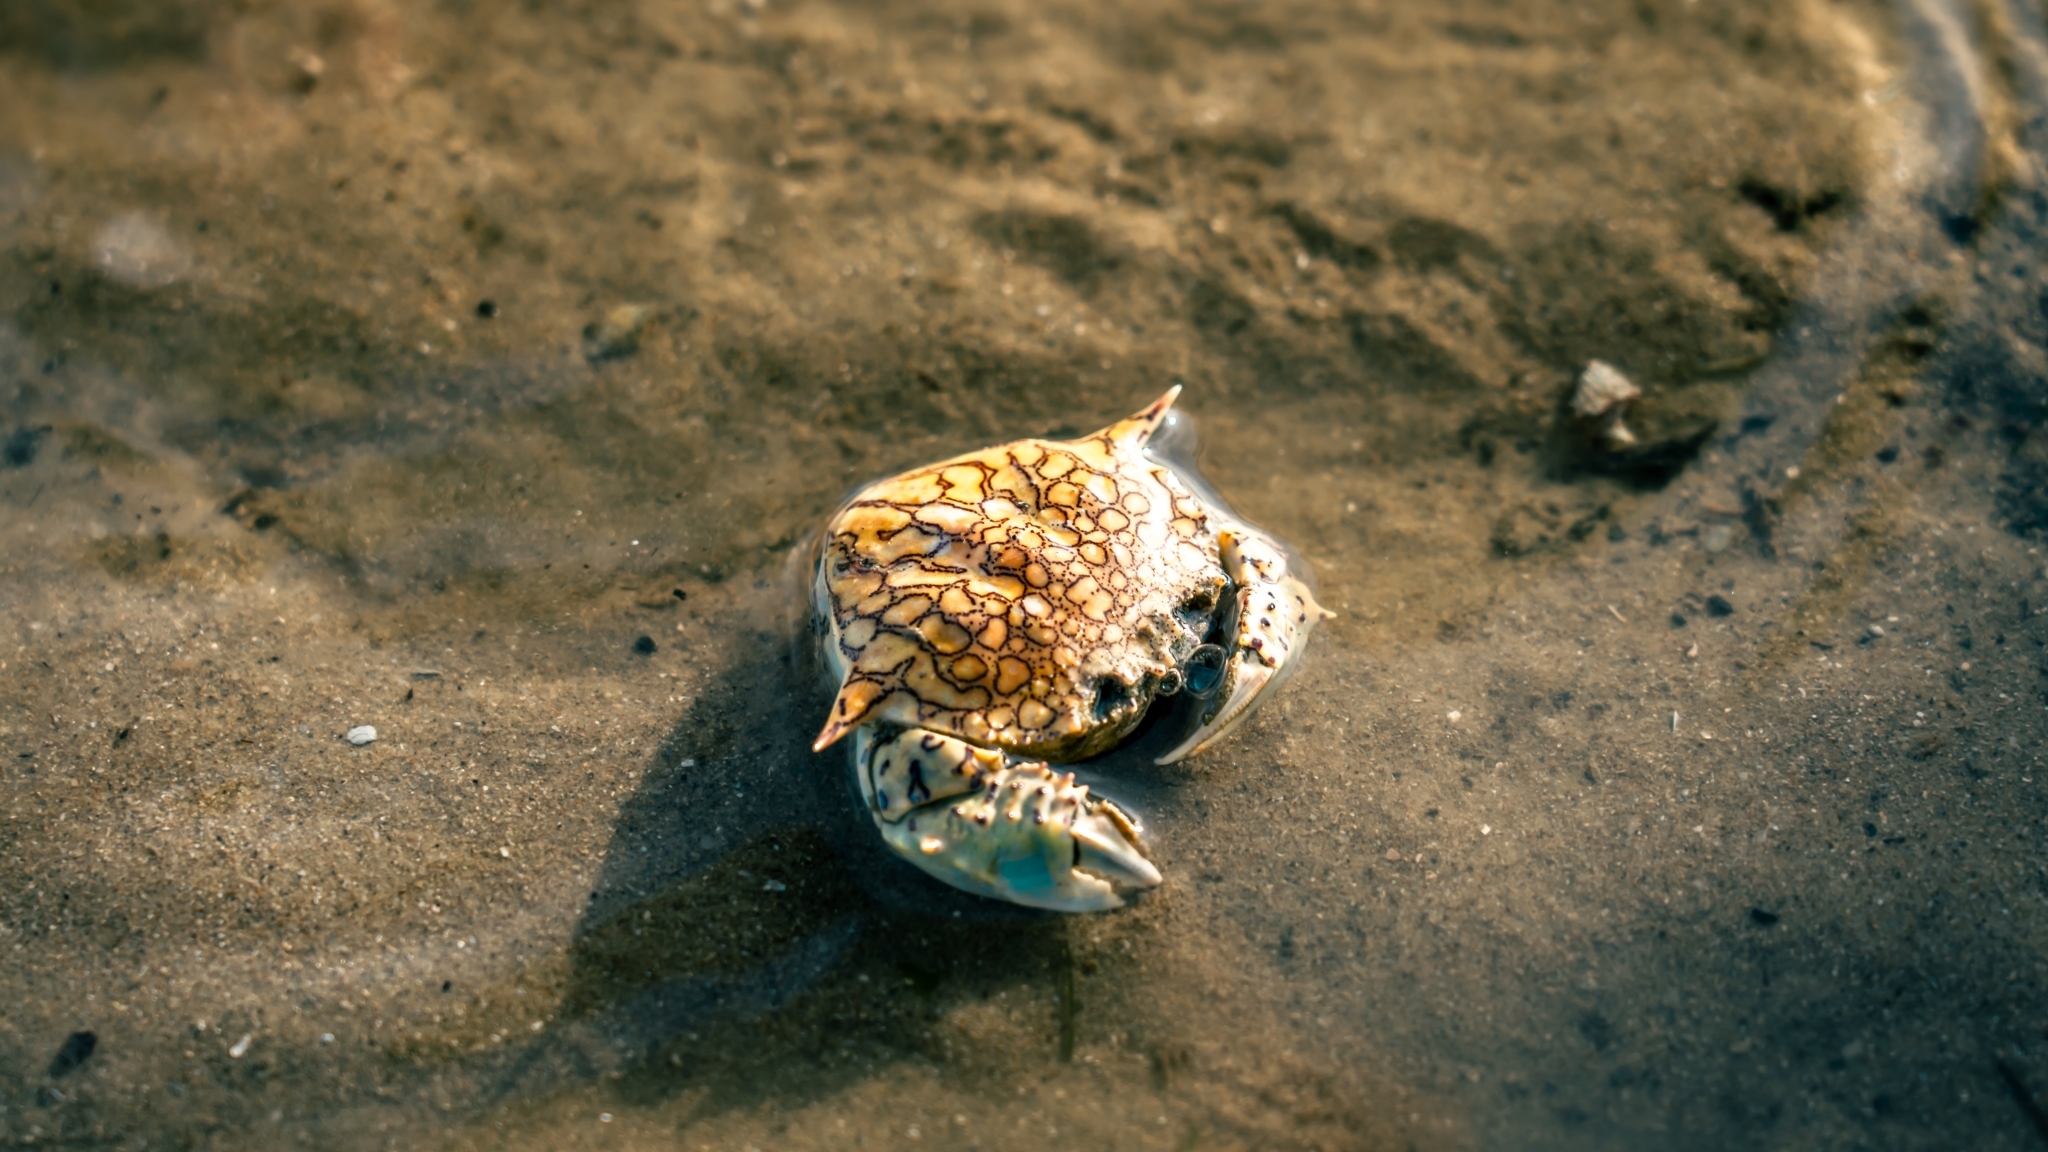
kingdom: Animalia
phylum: Arthropoda
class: Malacostraca
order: Decapoda
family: Matutidae
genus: Matuta
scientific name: Matuta planipes
